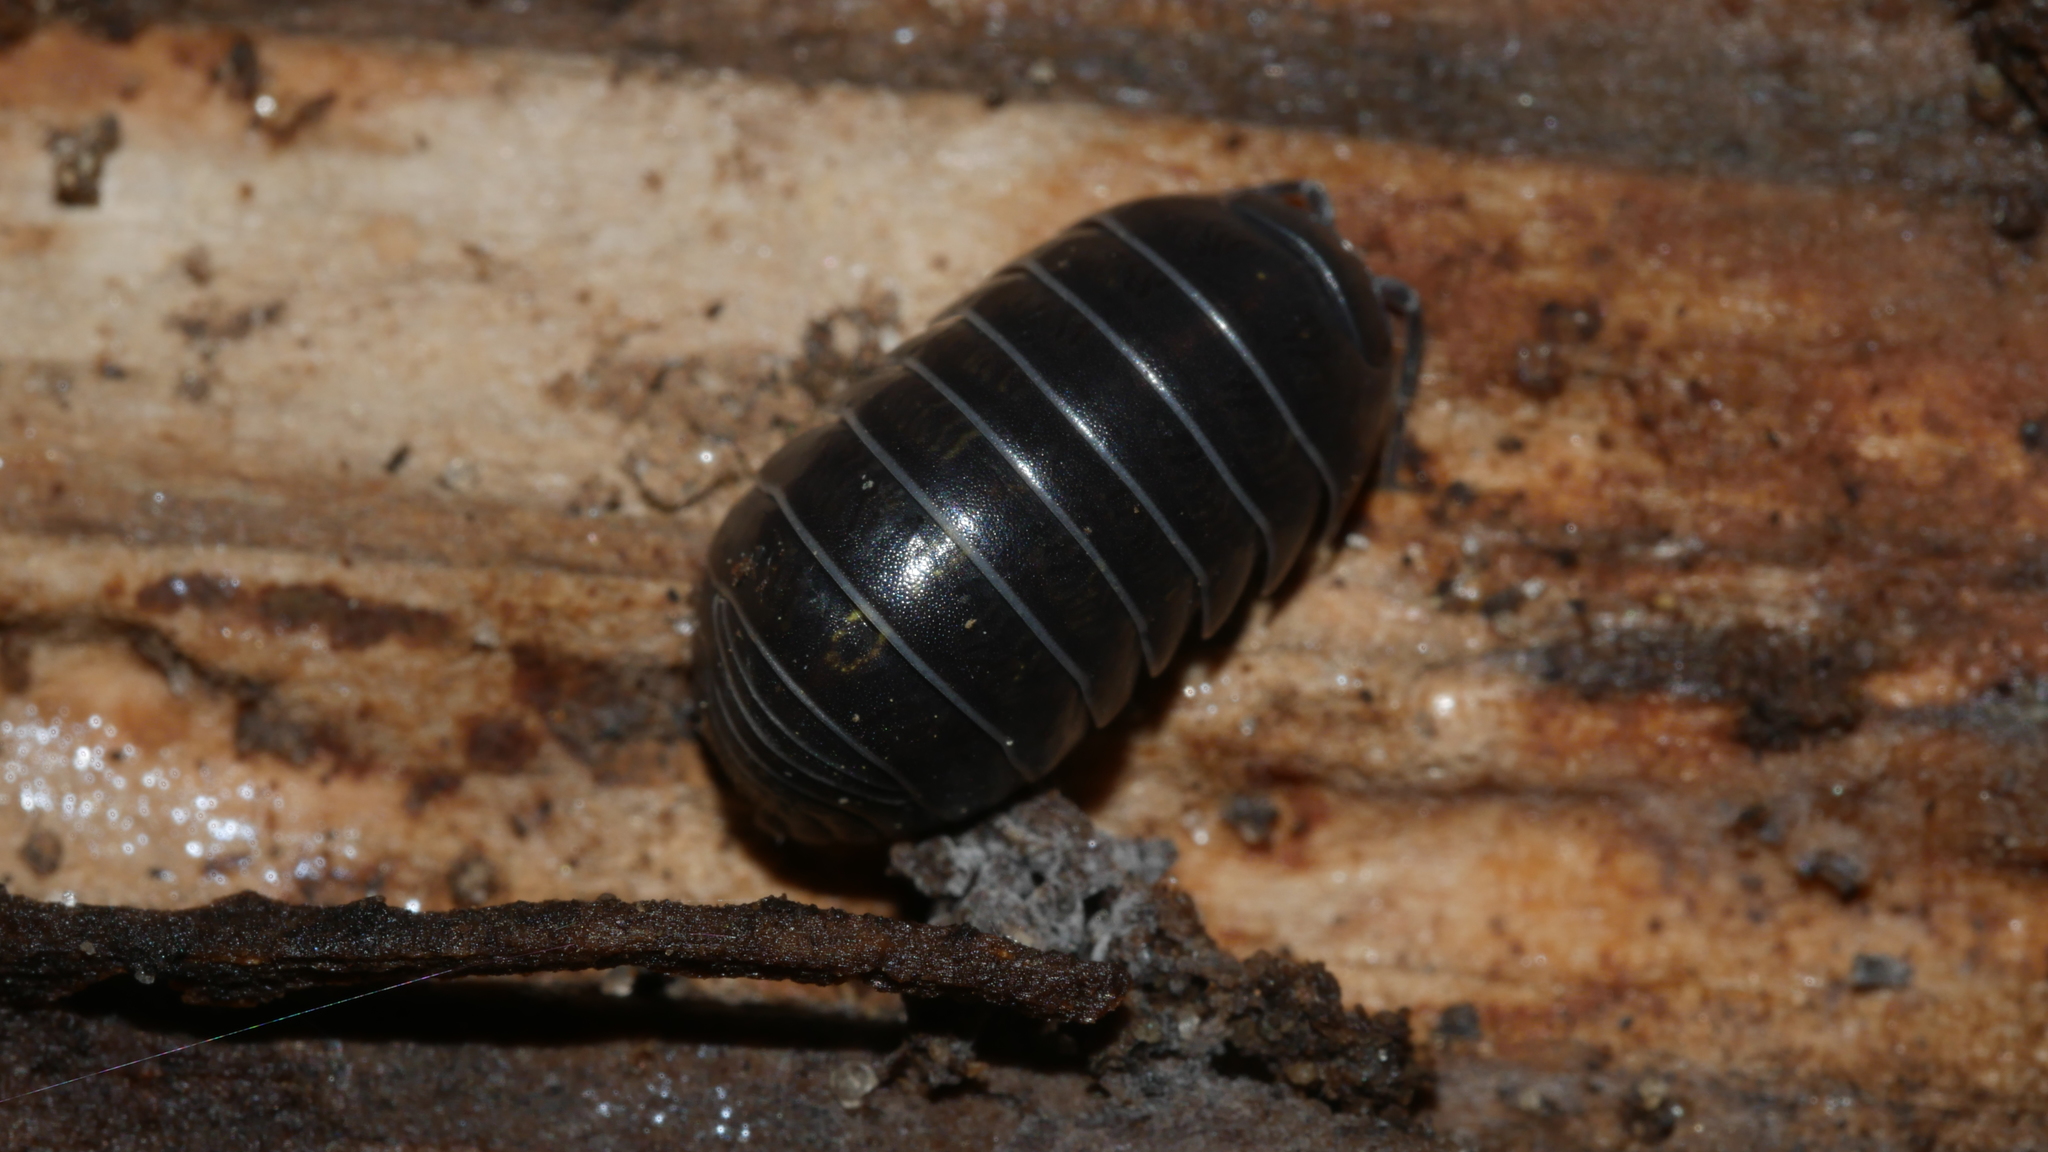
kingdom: Animalia
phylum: Arthropoda
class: Malacostraca
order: Isopoda
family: Armadillidiidae
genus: Armadillidium
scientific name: Armadillidium vulgare
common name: Common pill woodlouse
